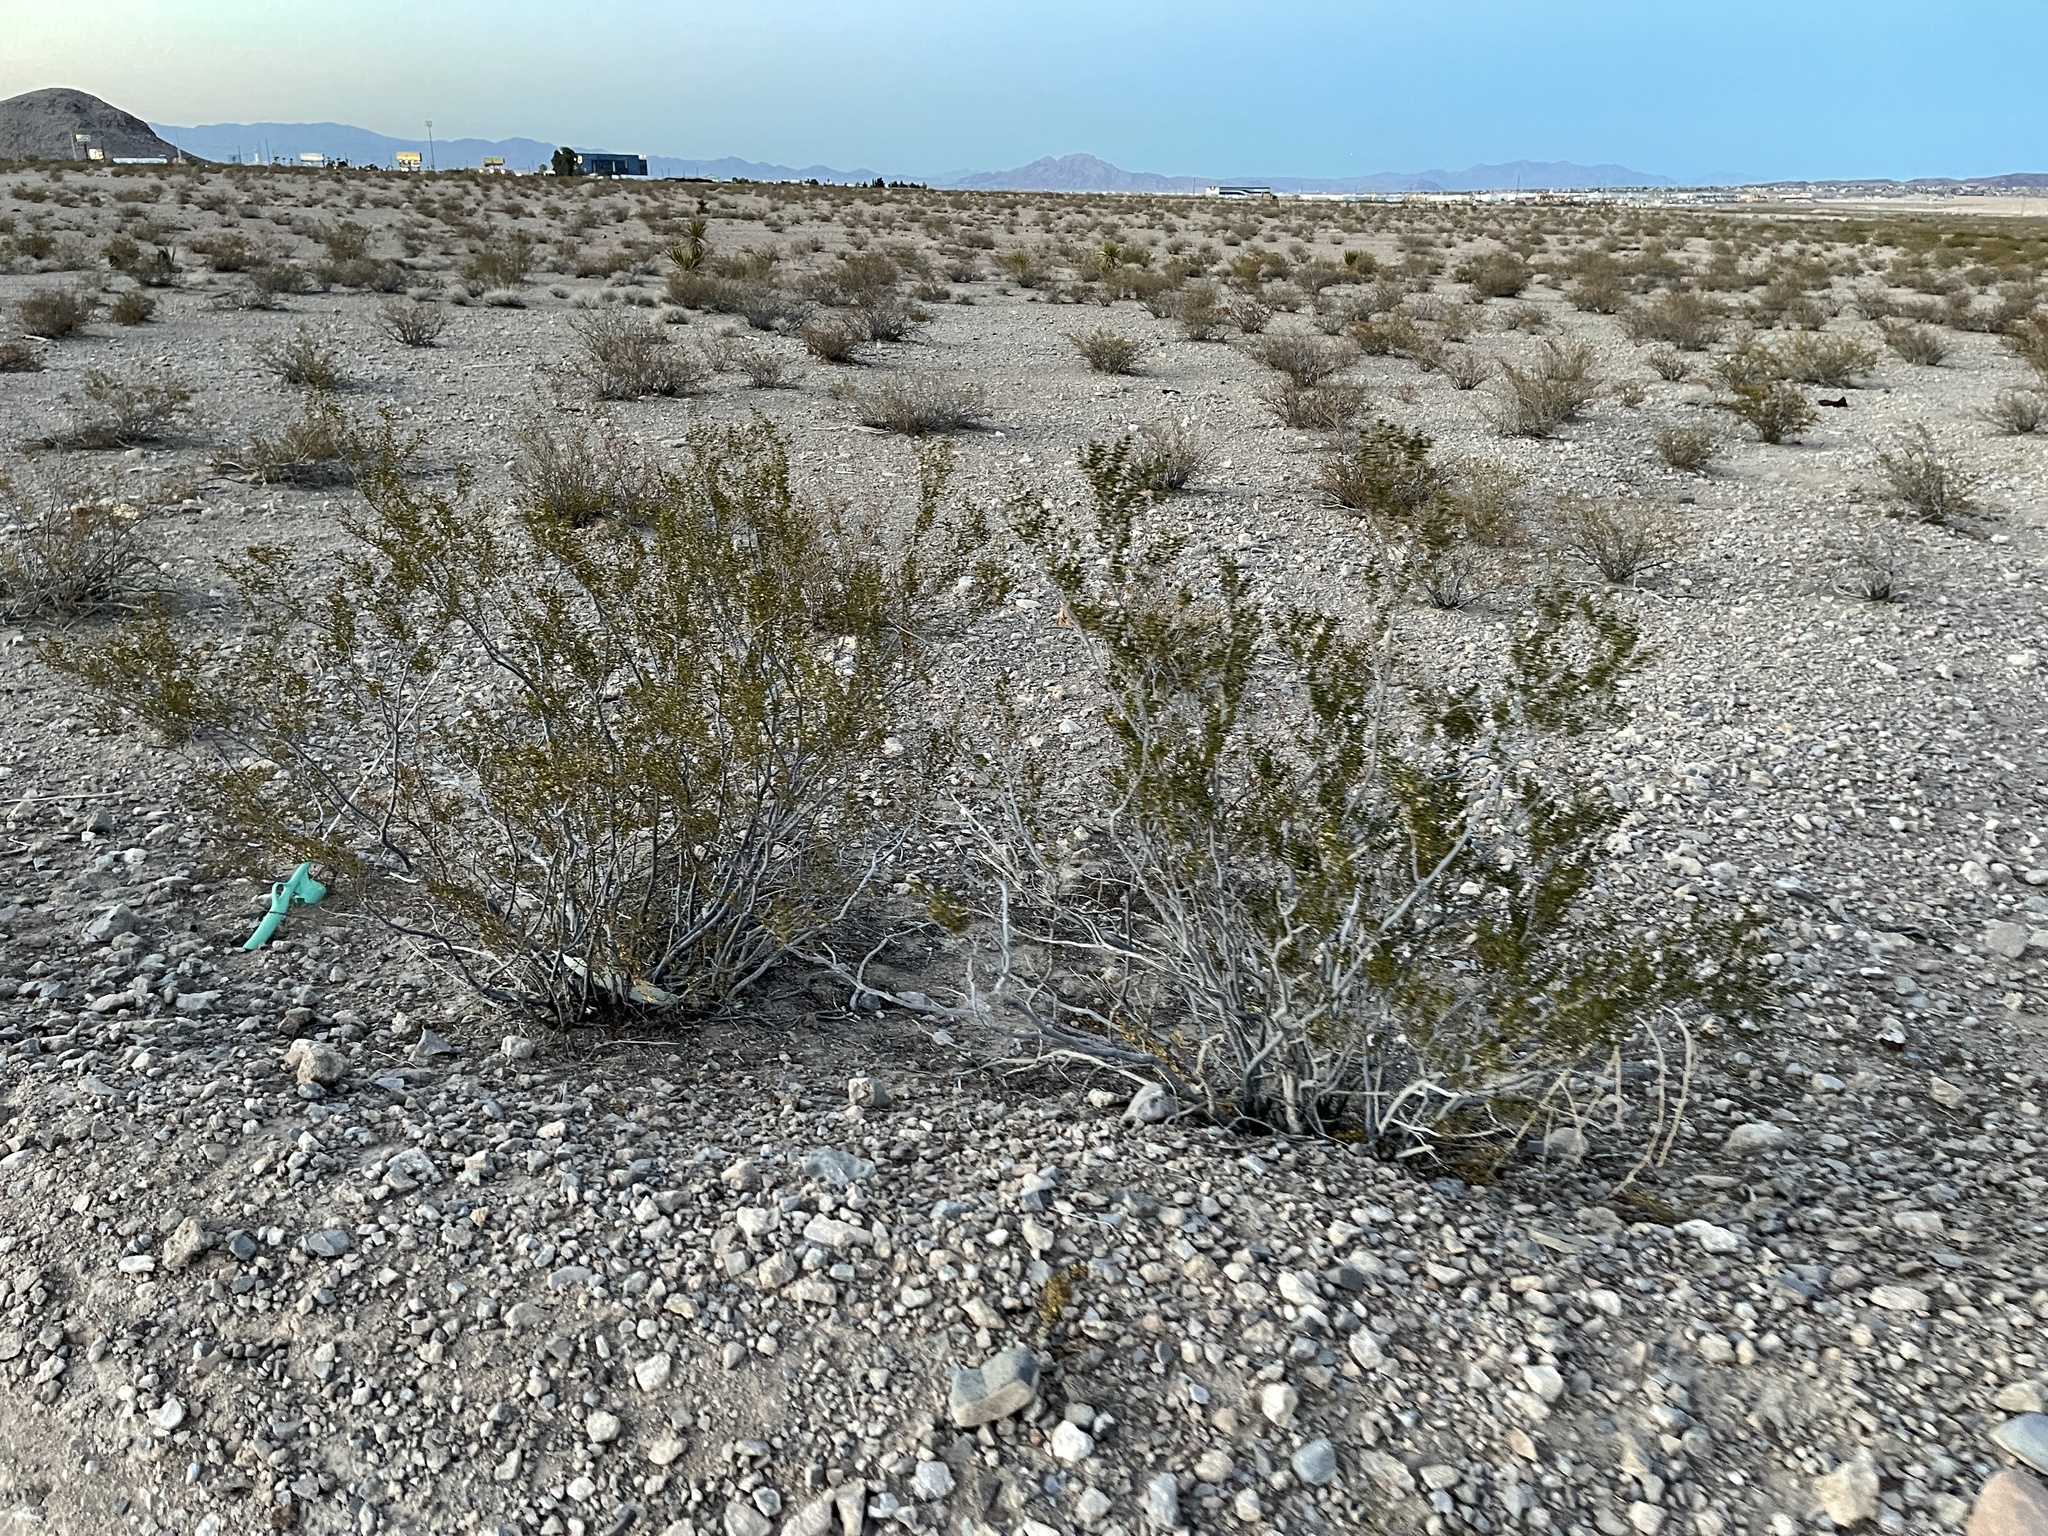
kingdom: Plantae
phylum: Tracheophyta
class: Magnoliopsida
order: Zygophyllales
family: Zygophyllaceae
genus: Larrea
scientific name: Larrea tridentata
